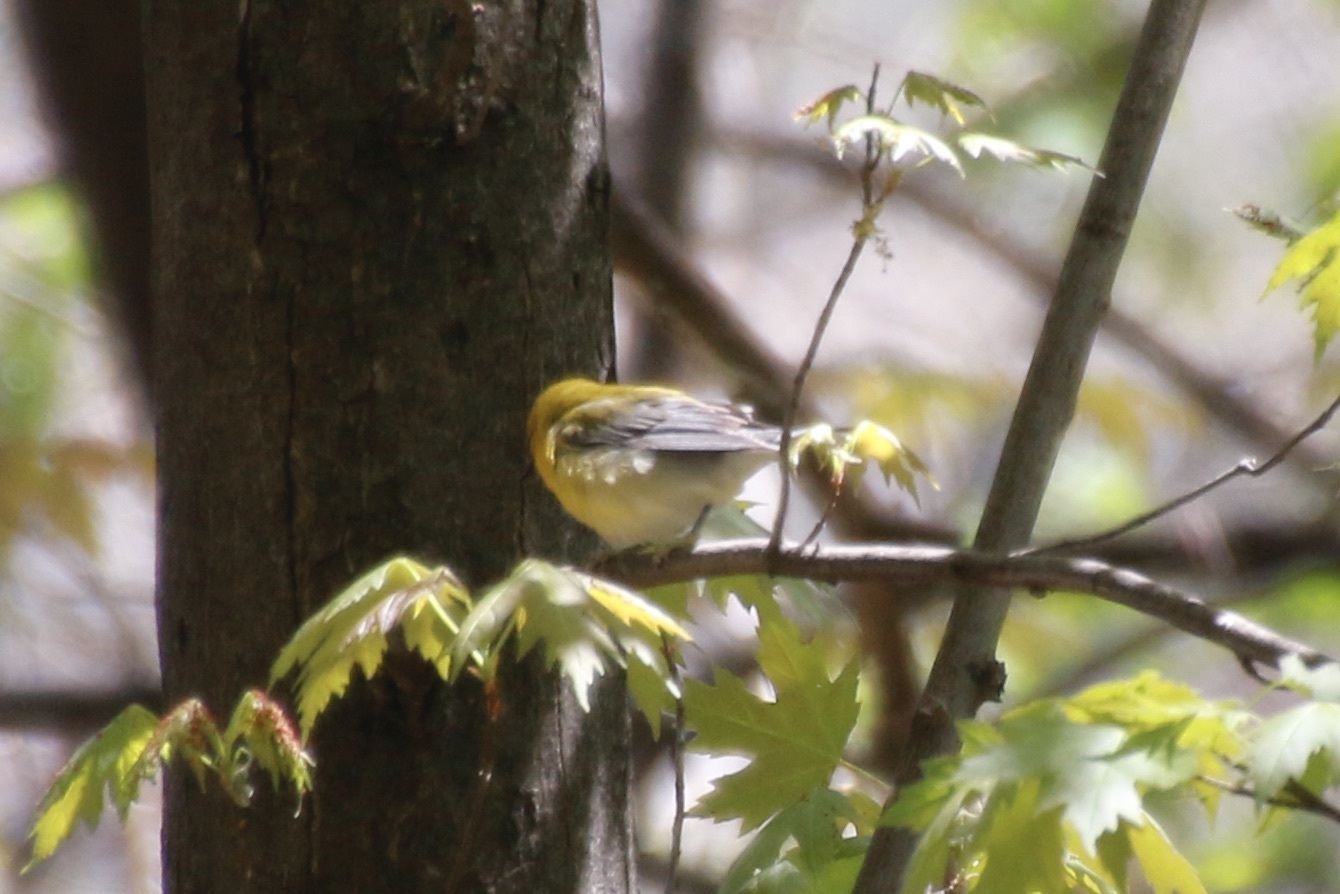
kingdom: Animalia
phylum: Chordata
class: Aves
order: Passeriformes
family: Parulidae
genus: Protonotaria
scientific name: Protonotaria citrea
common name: Prothonotary warbler
